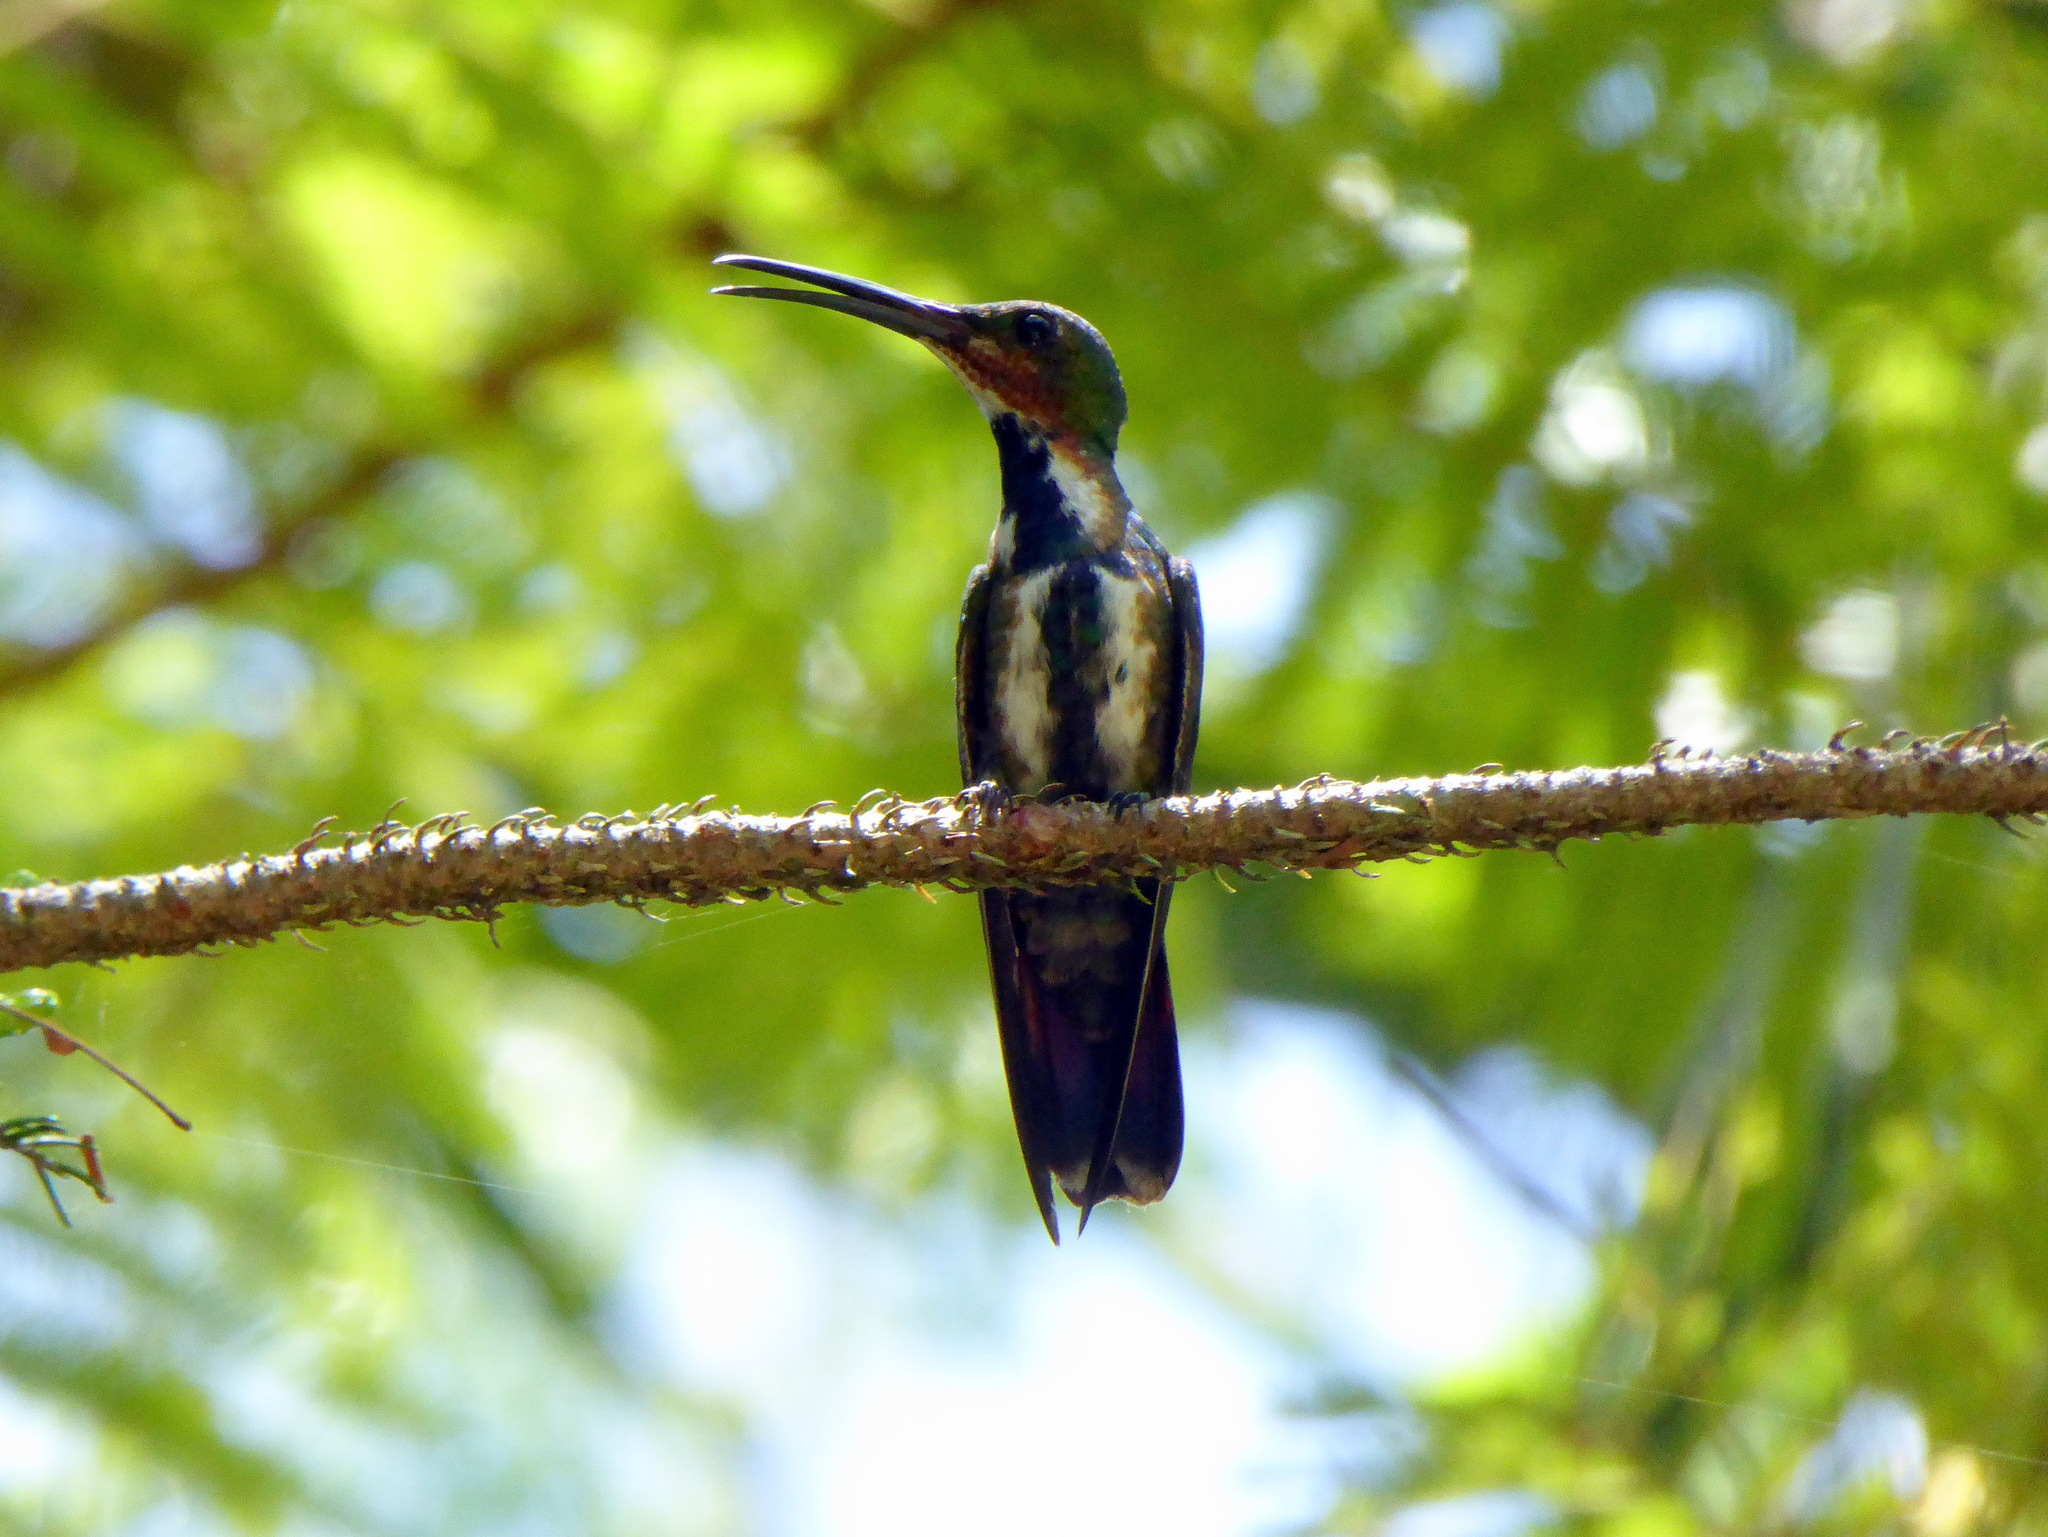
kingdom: Animalia
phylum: Chordata
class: Aves
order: Apodiformes
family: Trochilidae
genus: Anthracothorax
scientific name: Anthracothorax prevostii
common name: Green-breasted mango
